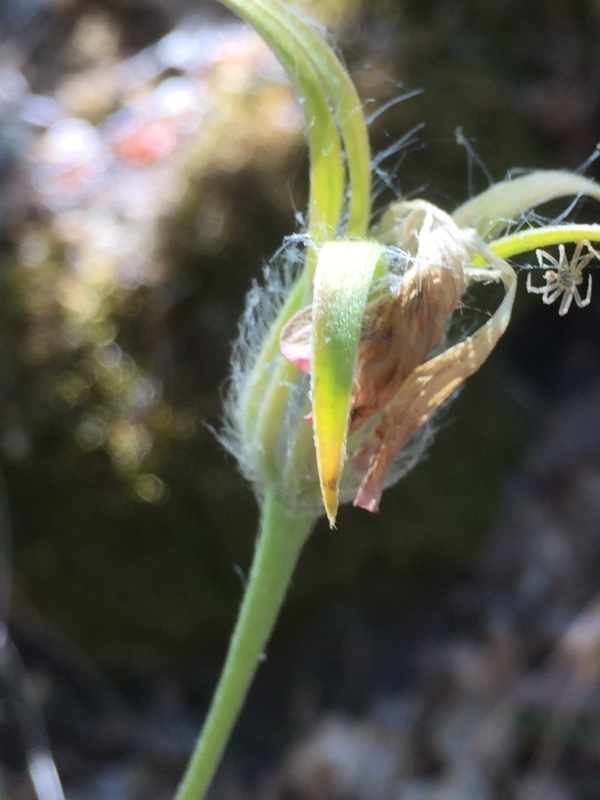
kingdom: Plantae
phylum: Tracheophyta
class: Magnoliopsida
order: Caryophyllales
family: Caryophyllaceae
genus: Agrostemma
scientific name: Agrostemma githago
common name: Common corncockle
